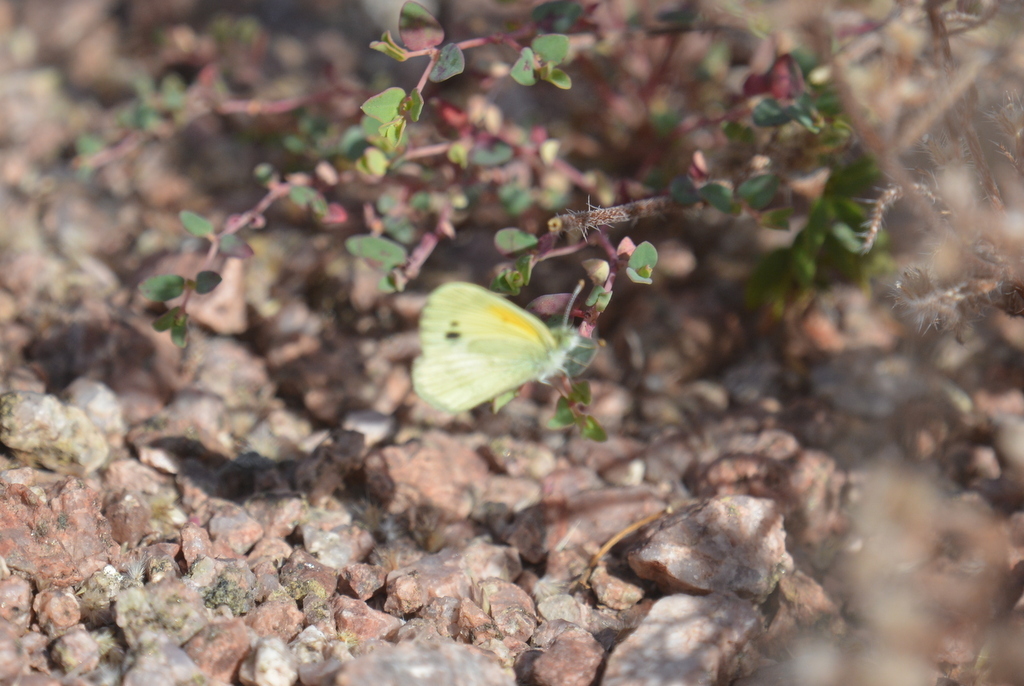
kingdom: Animalia
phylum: Arthropoda
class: Insecta
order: Lepidoptera
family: Pieridae
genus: Nathalis
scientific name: Nathalis iole
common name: Dainty sulphur
